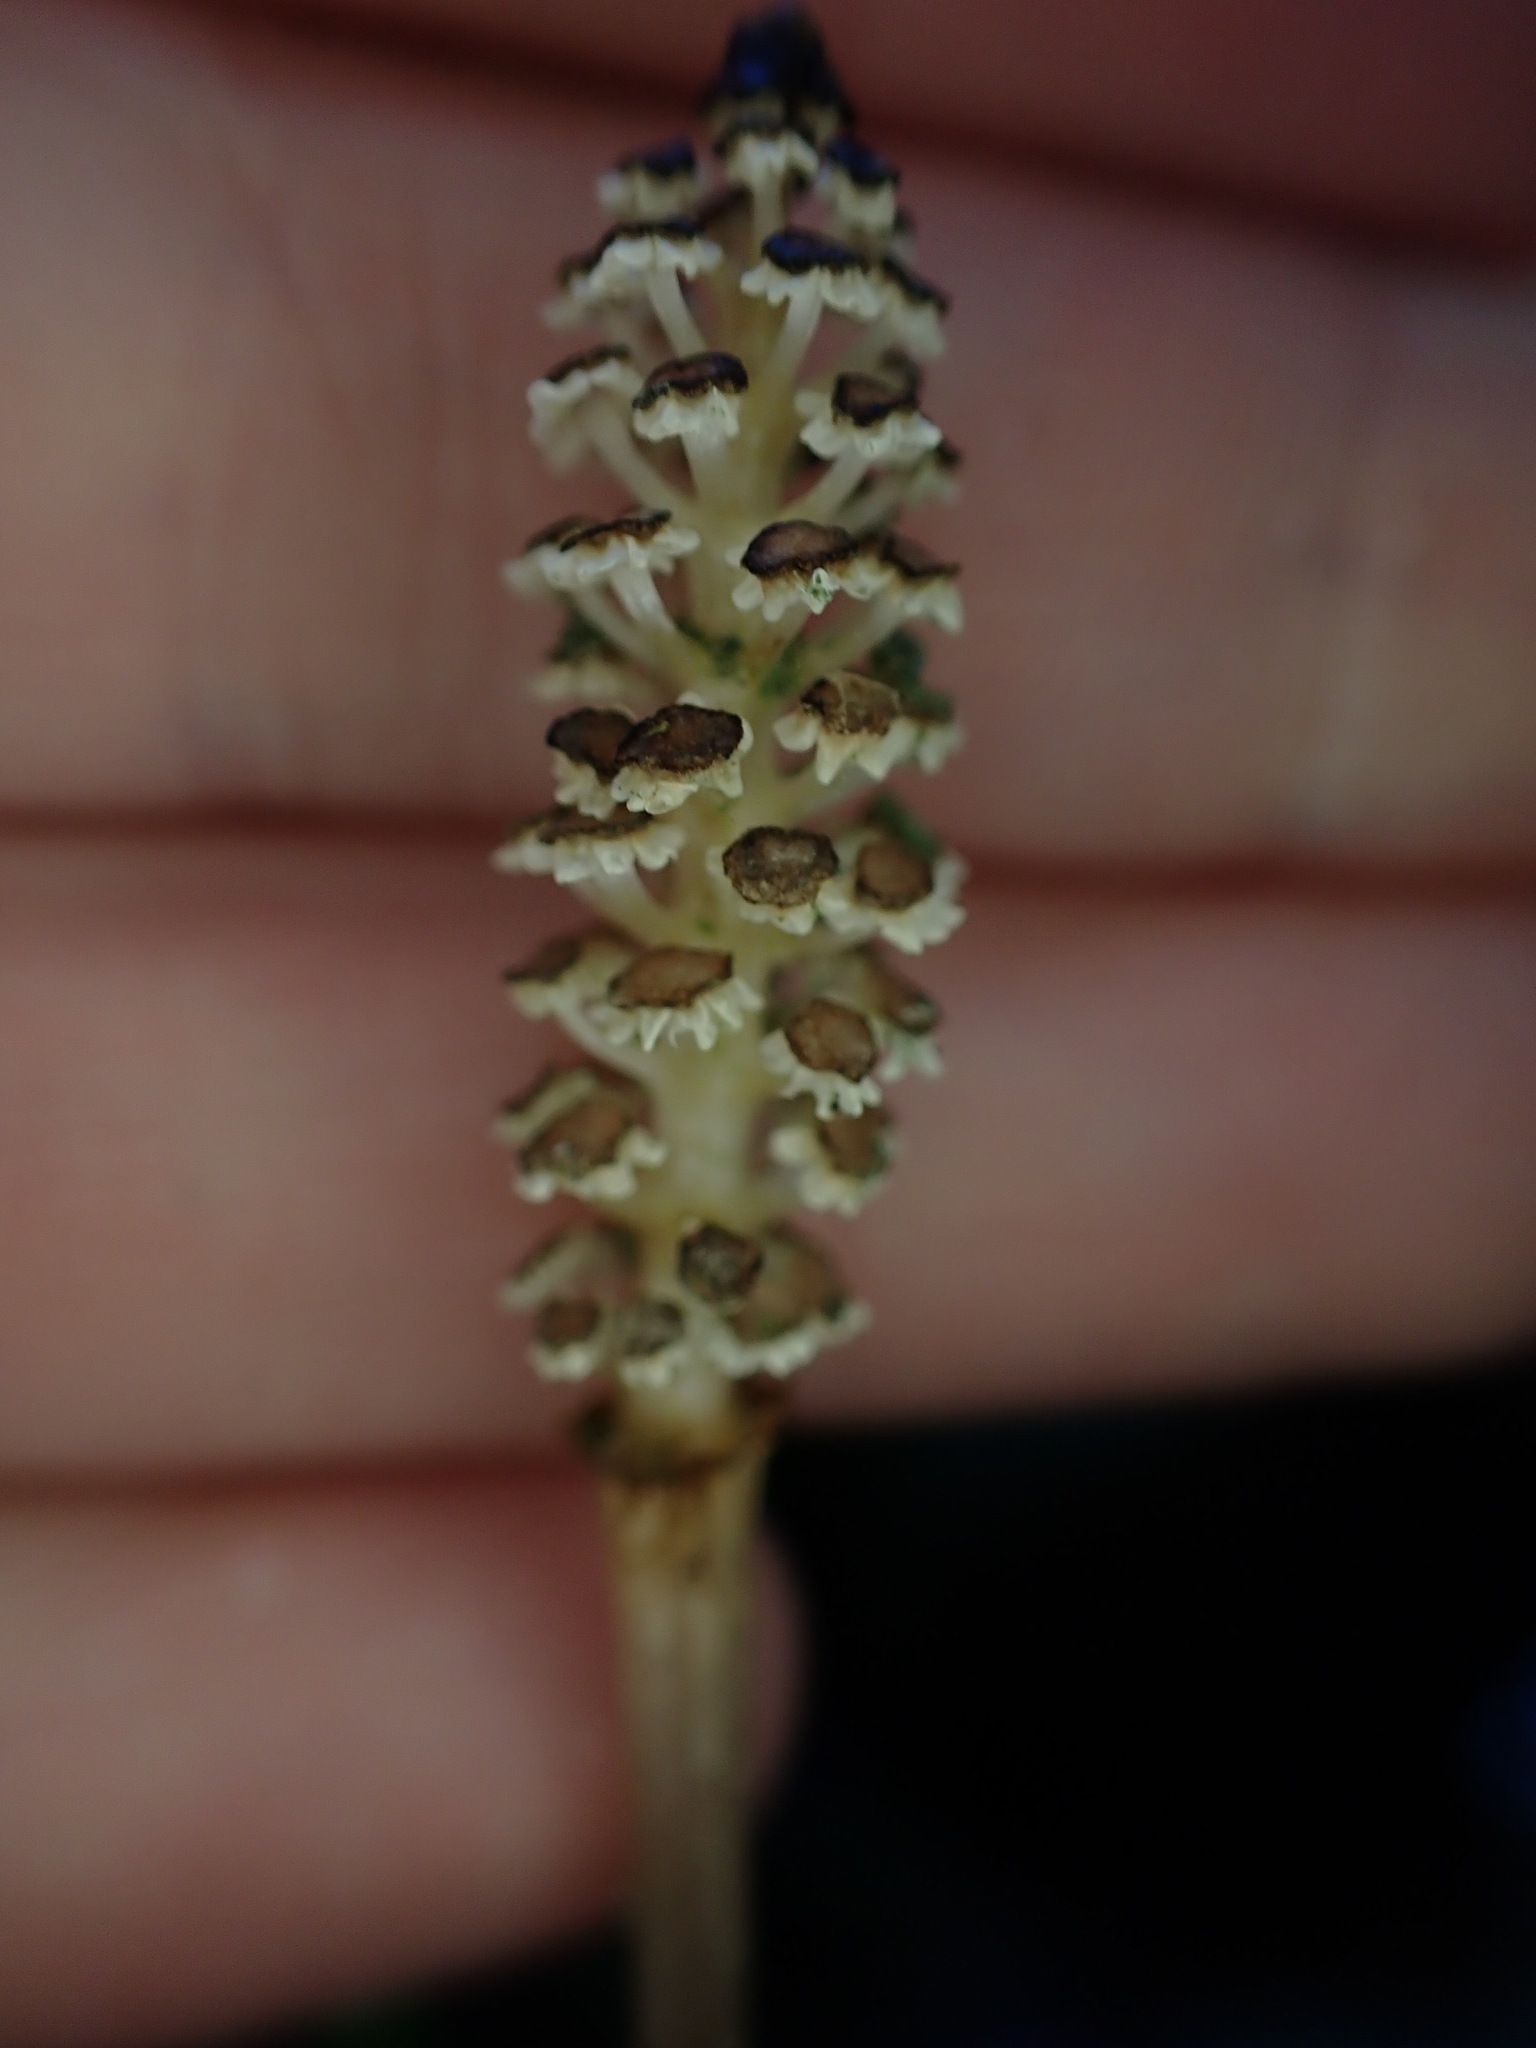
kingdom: Plantae
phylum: Tracheophyta
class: Polypodiopsida
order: Equisetales
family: Equisetaceae
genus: Equisetum
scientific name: Equisetum arvense
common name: Field horsetail
